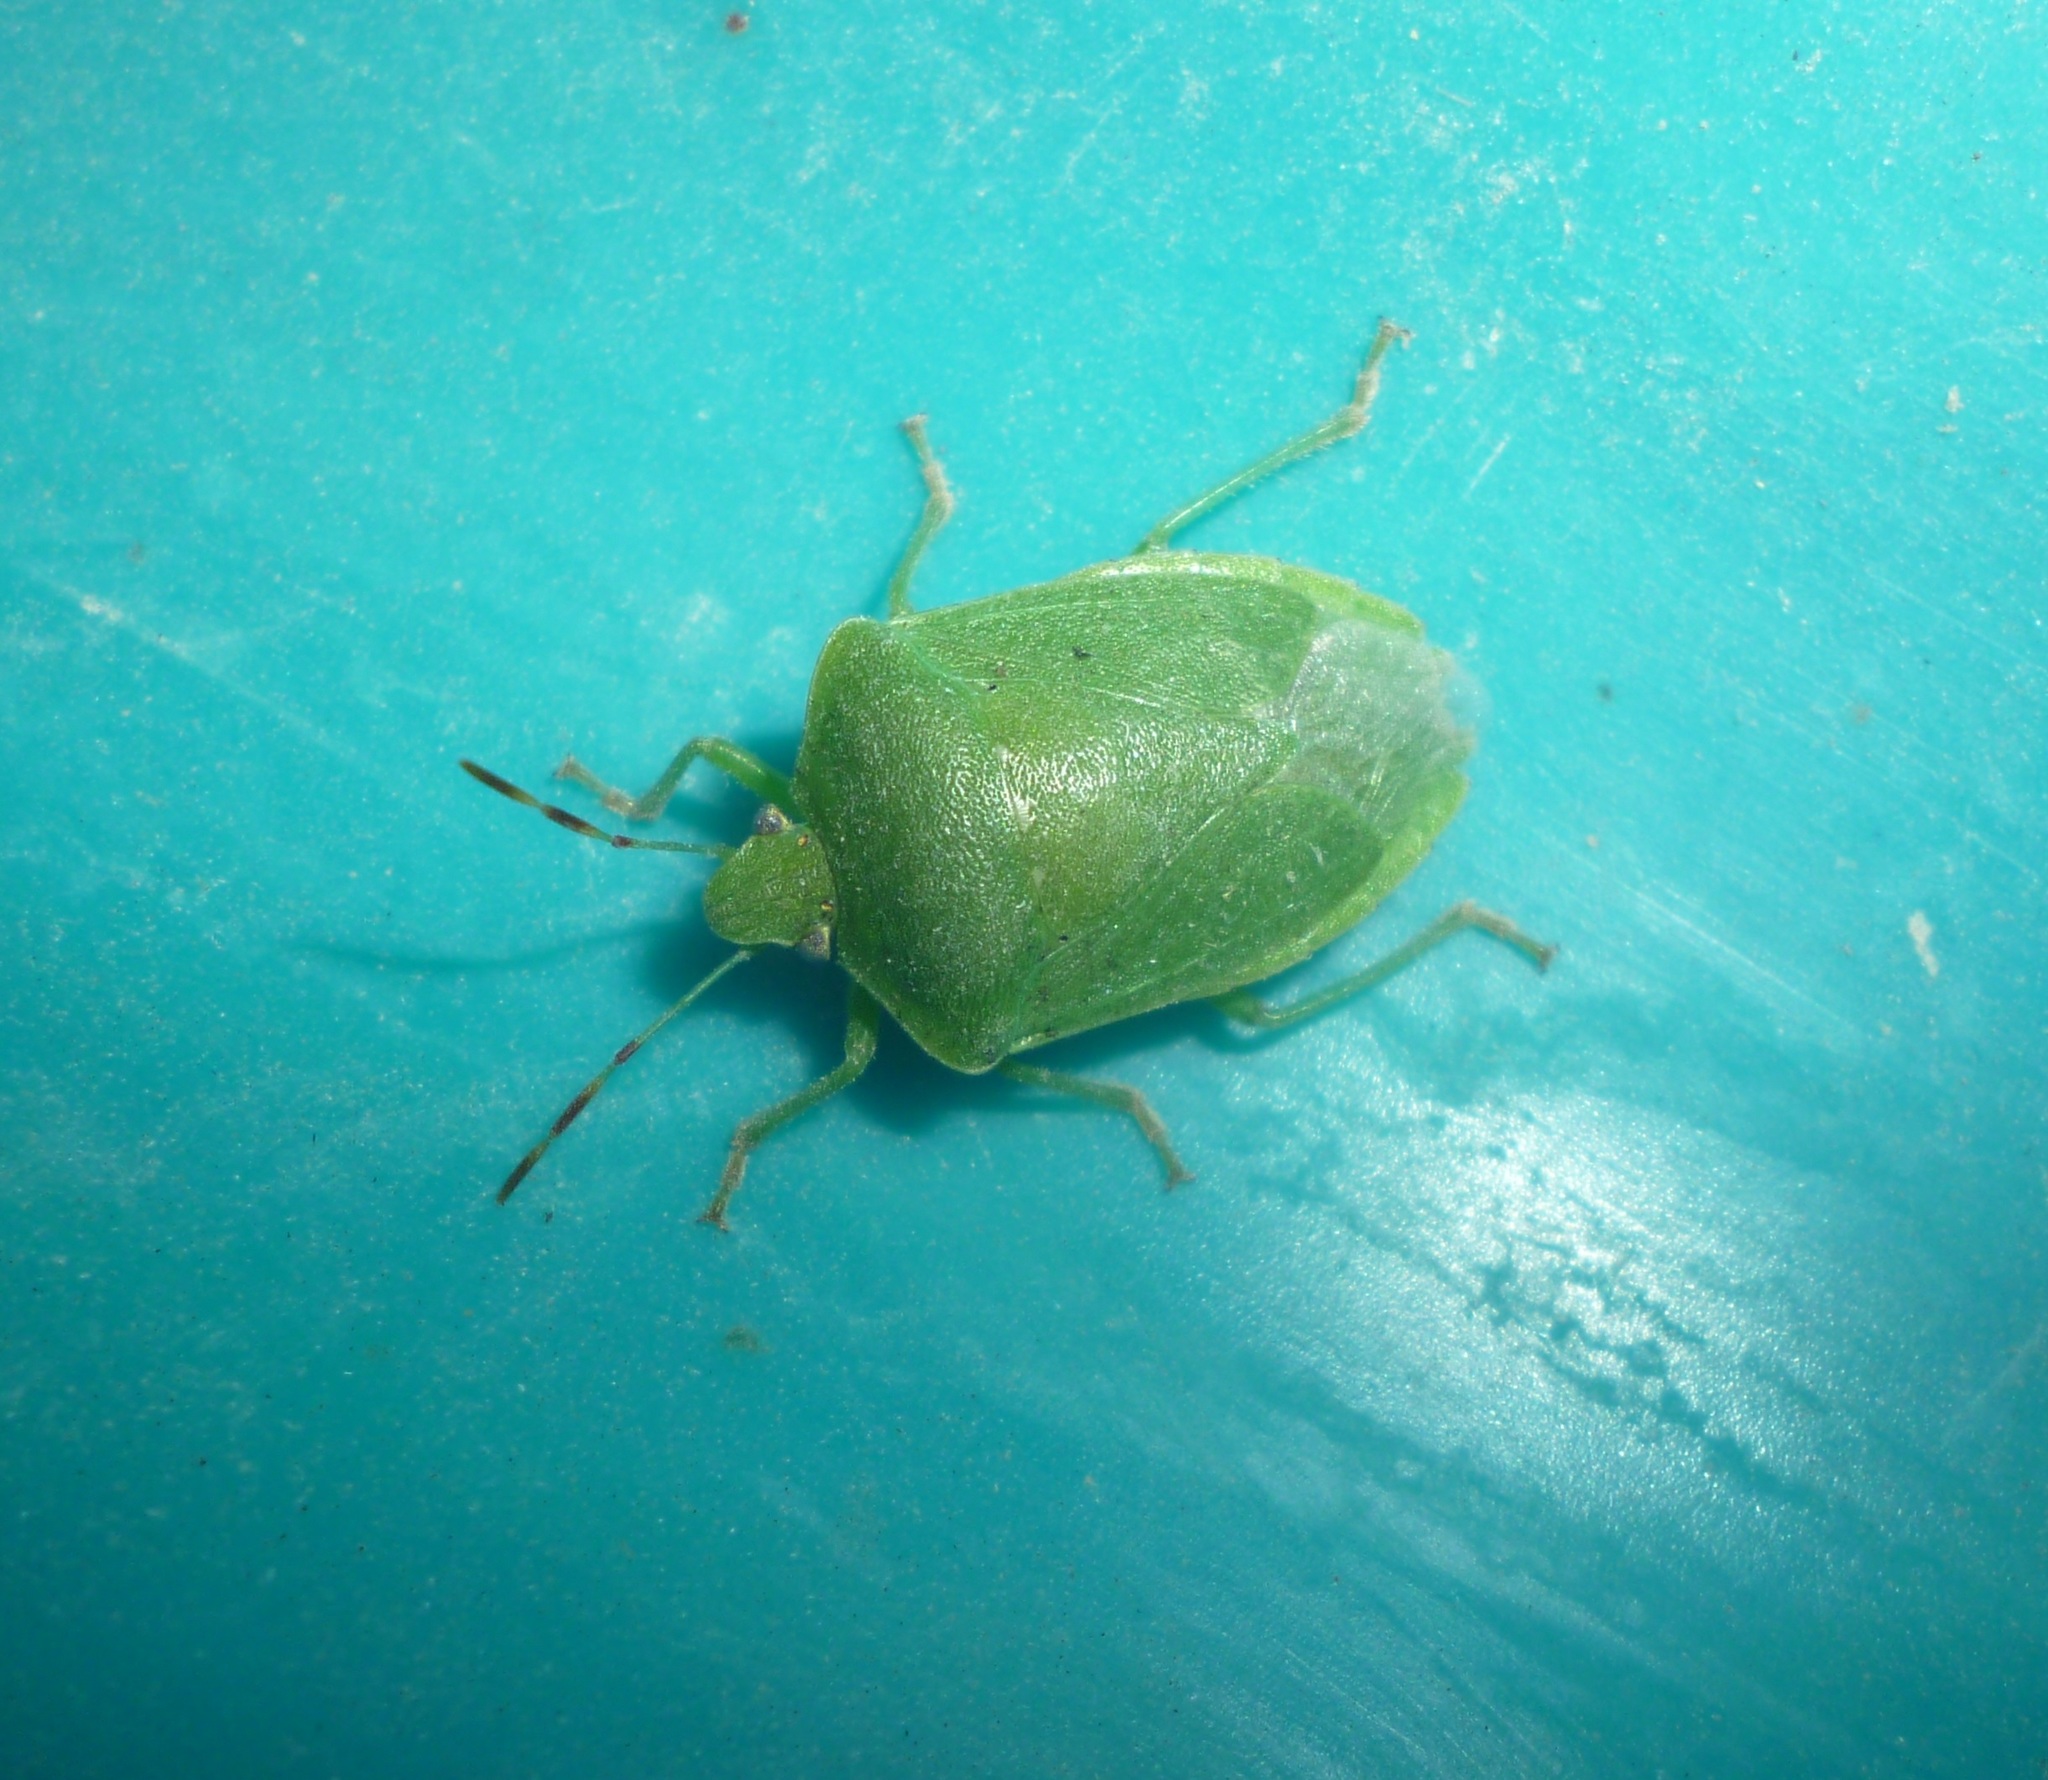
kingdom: Animalia
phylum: Arthropoda
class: Insecta
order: Hemiptera
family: Pentatomidae
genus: Nezara
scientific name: Nezara viridula
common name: Southern green stink bug
